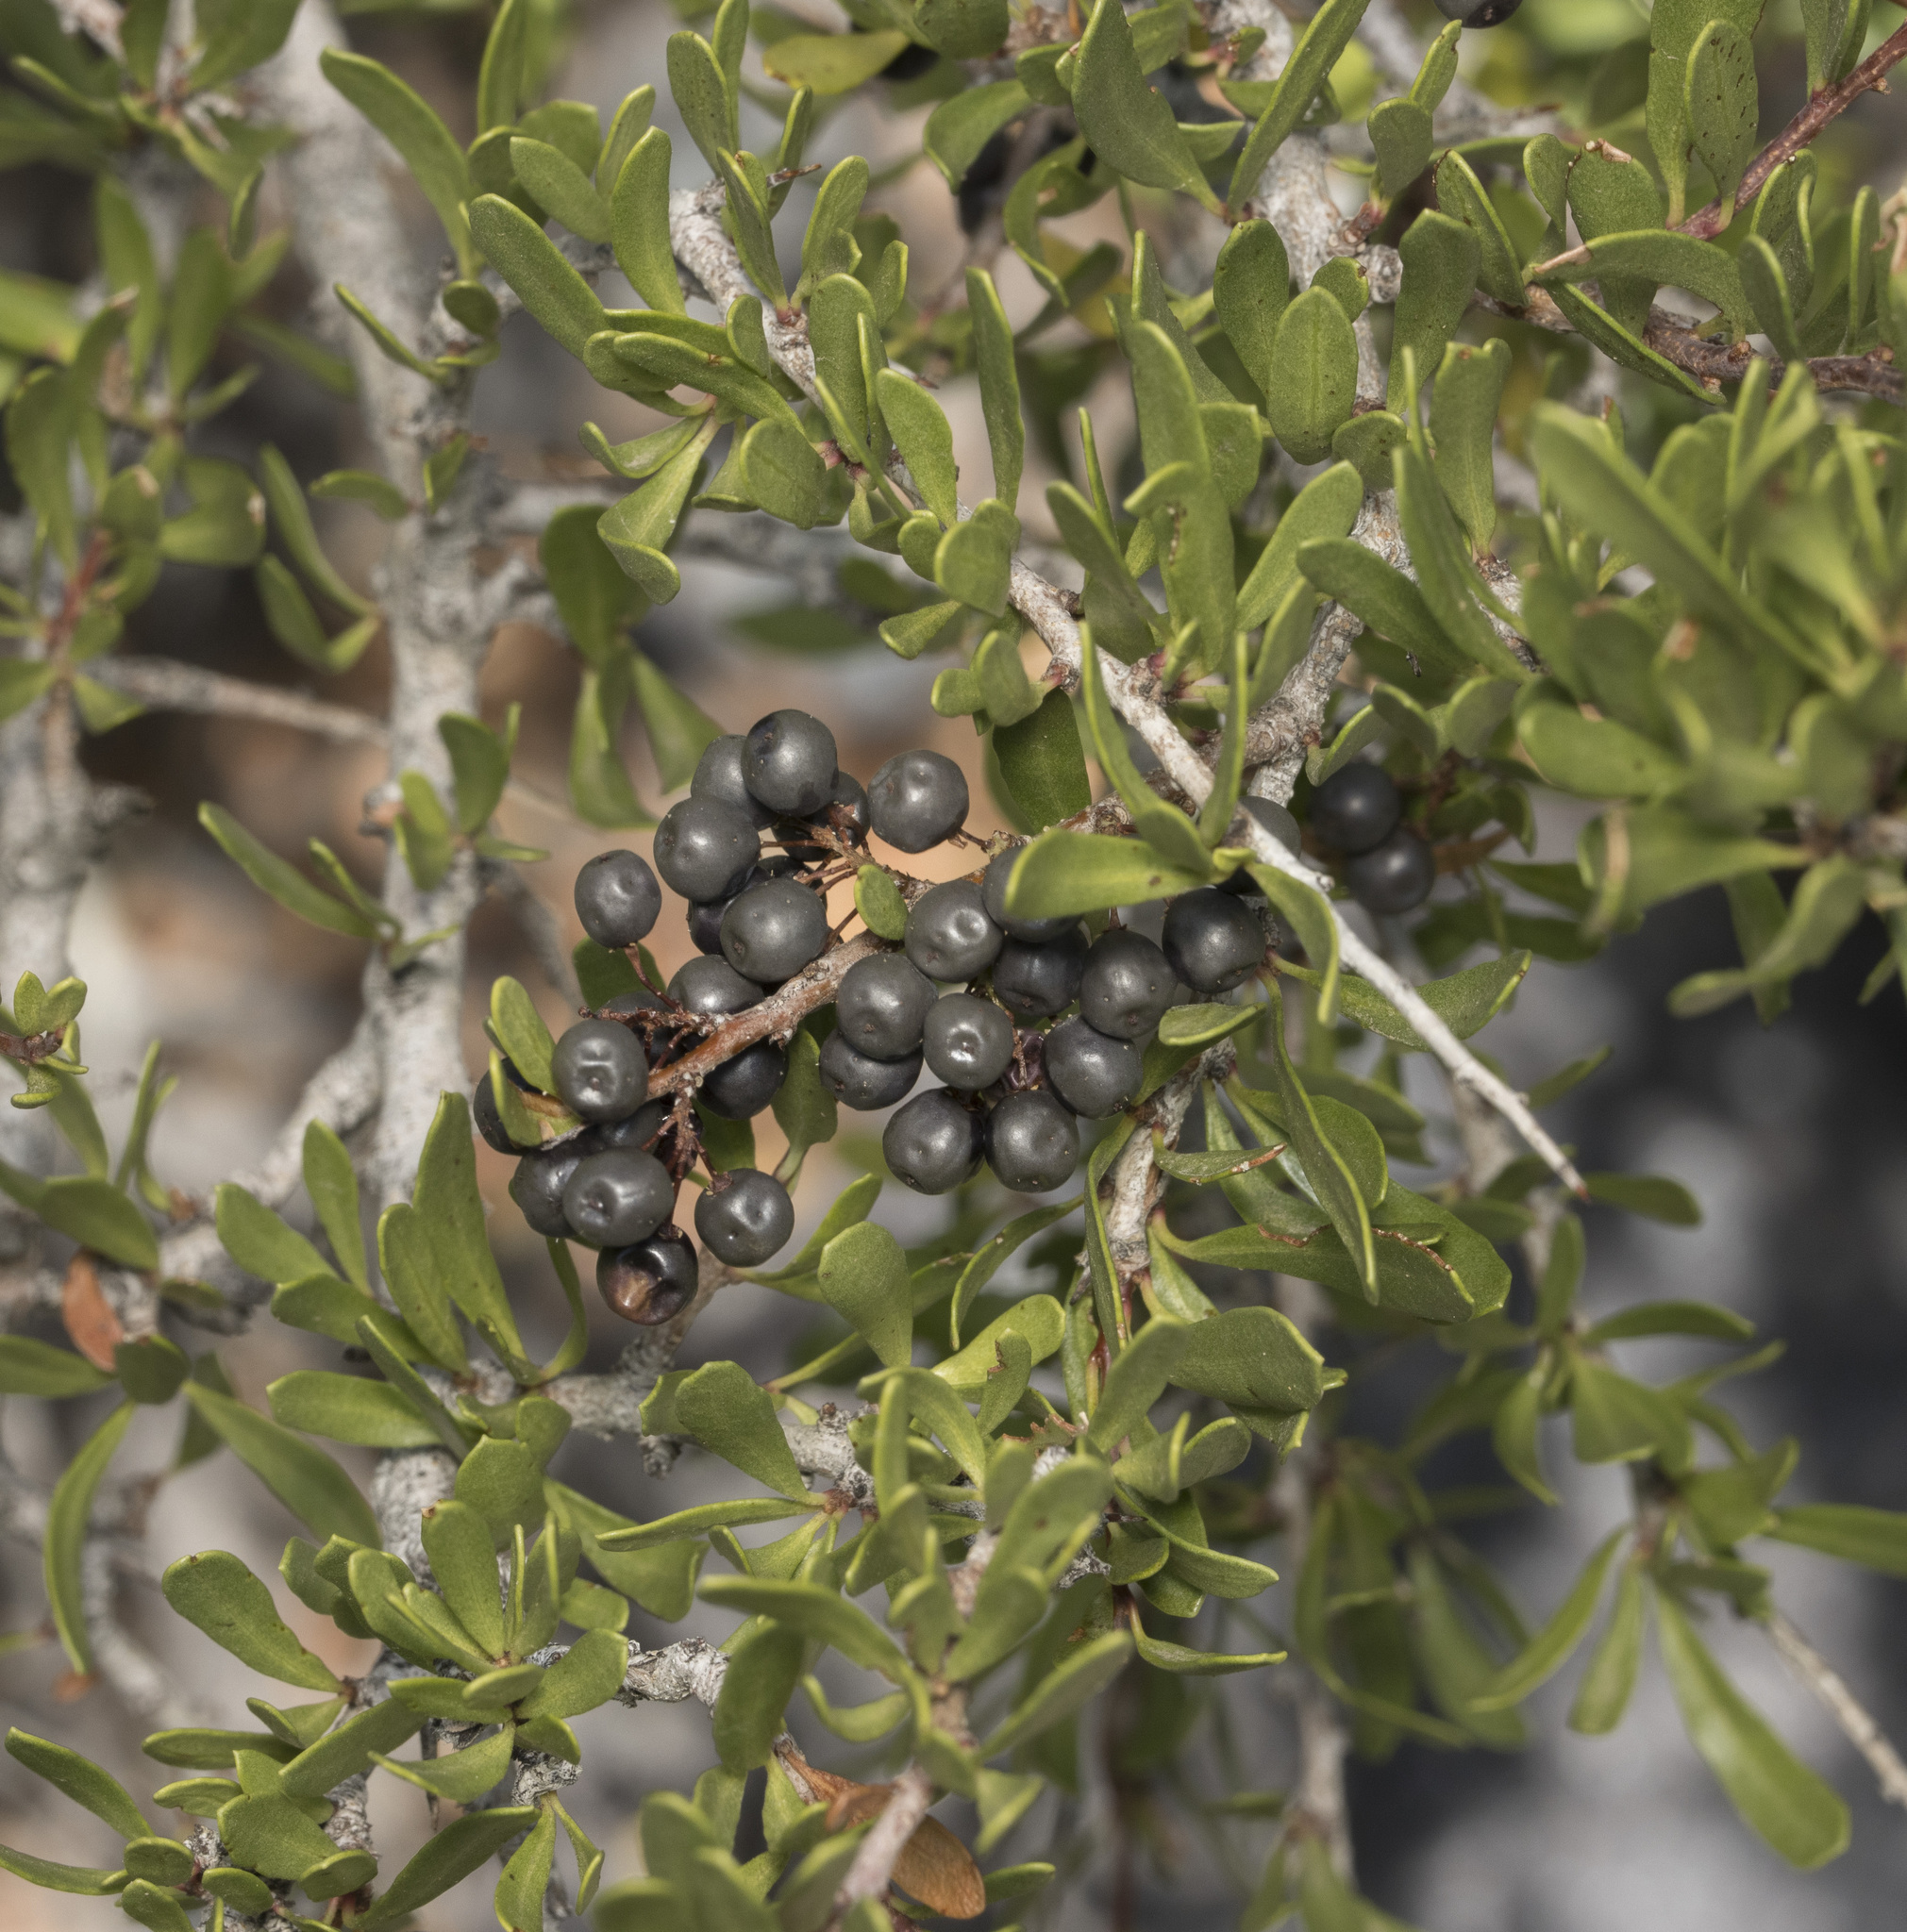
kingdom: Plantae
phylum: Tracheophyta
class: Magnoliopsida
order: Sapindales
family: Anacardiaceae
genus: Schinus
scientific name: Schinus polygama
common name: Hardee peppertree
